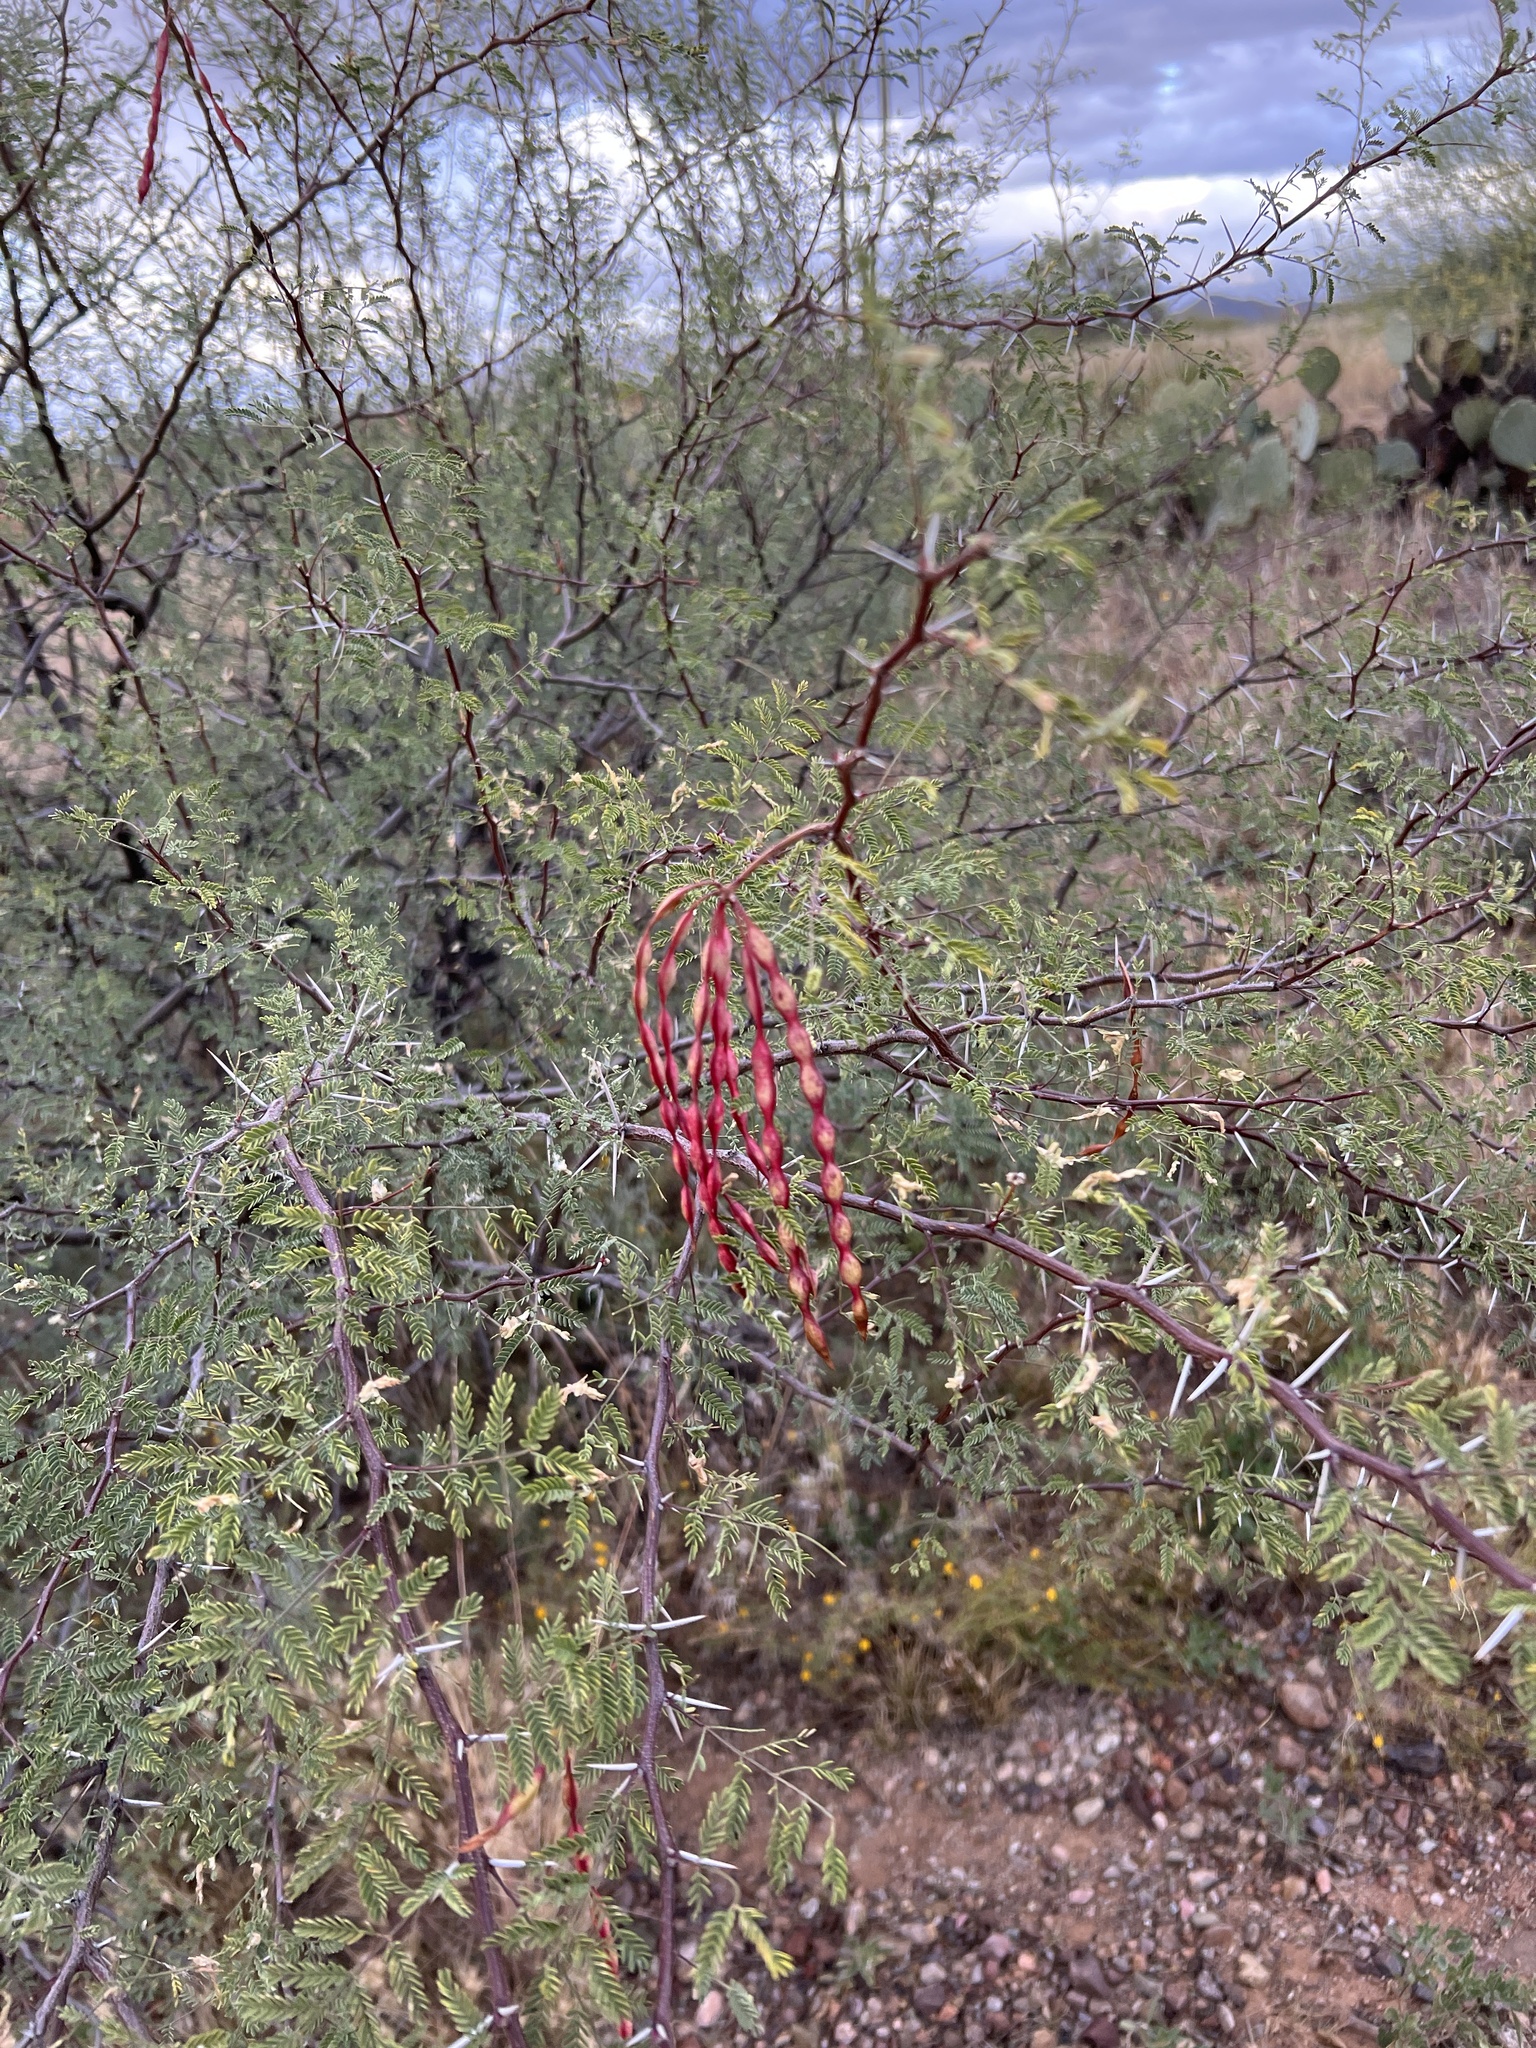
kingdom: Plantae
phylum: Tracheophyta
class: Magnoliopsida
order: Fabales
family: Fabaceae
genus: Vachellia
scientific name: Vachellia constricta
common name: Mescat acacia
